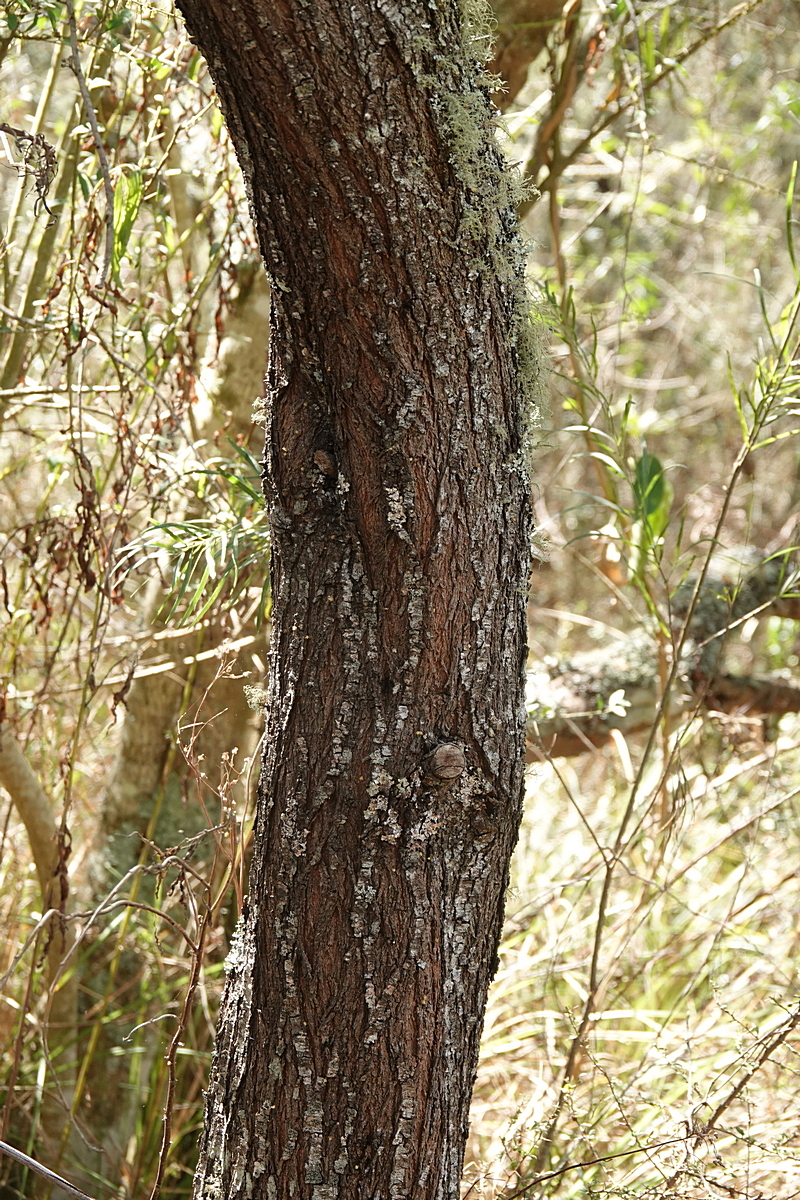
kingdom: Plantae
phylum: Tracheophyta
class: Magnoliopsida
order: Fabales
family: Fabaceae
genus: Acacia
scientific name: Acacia floribunda
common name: Gossamer wattle
